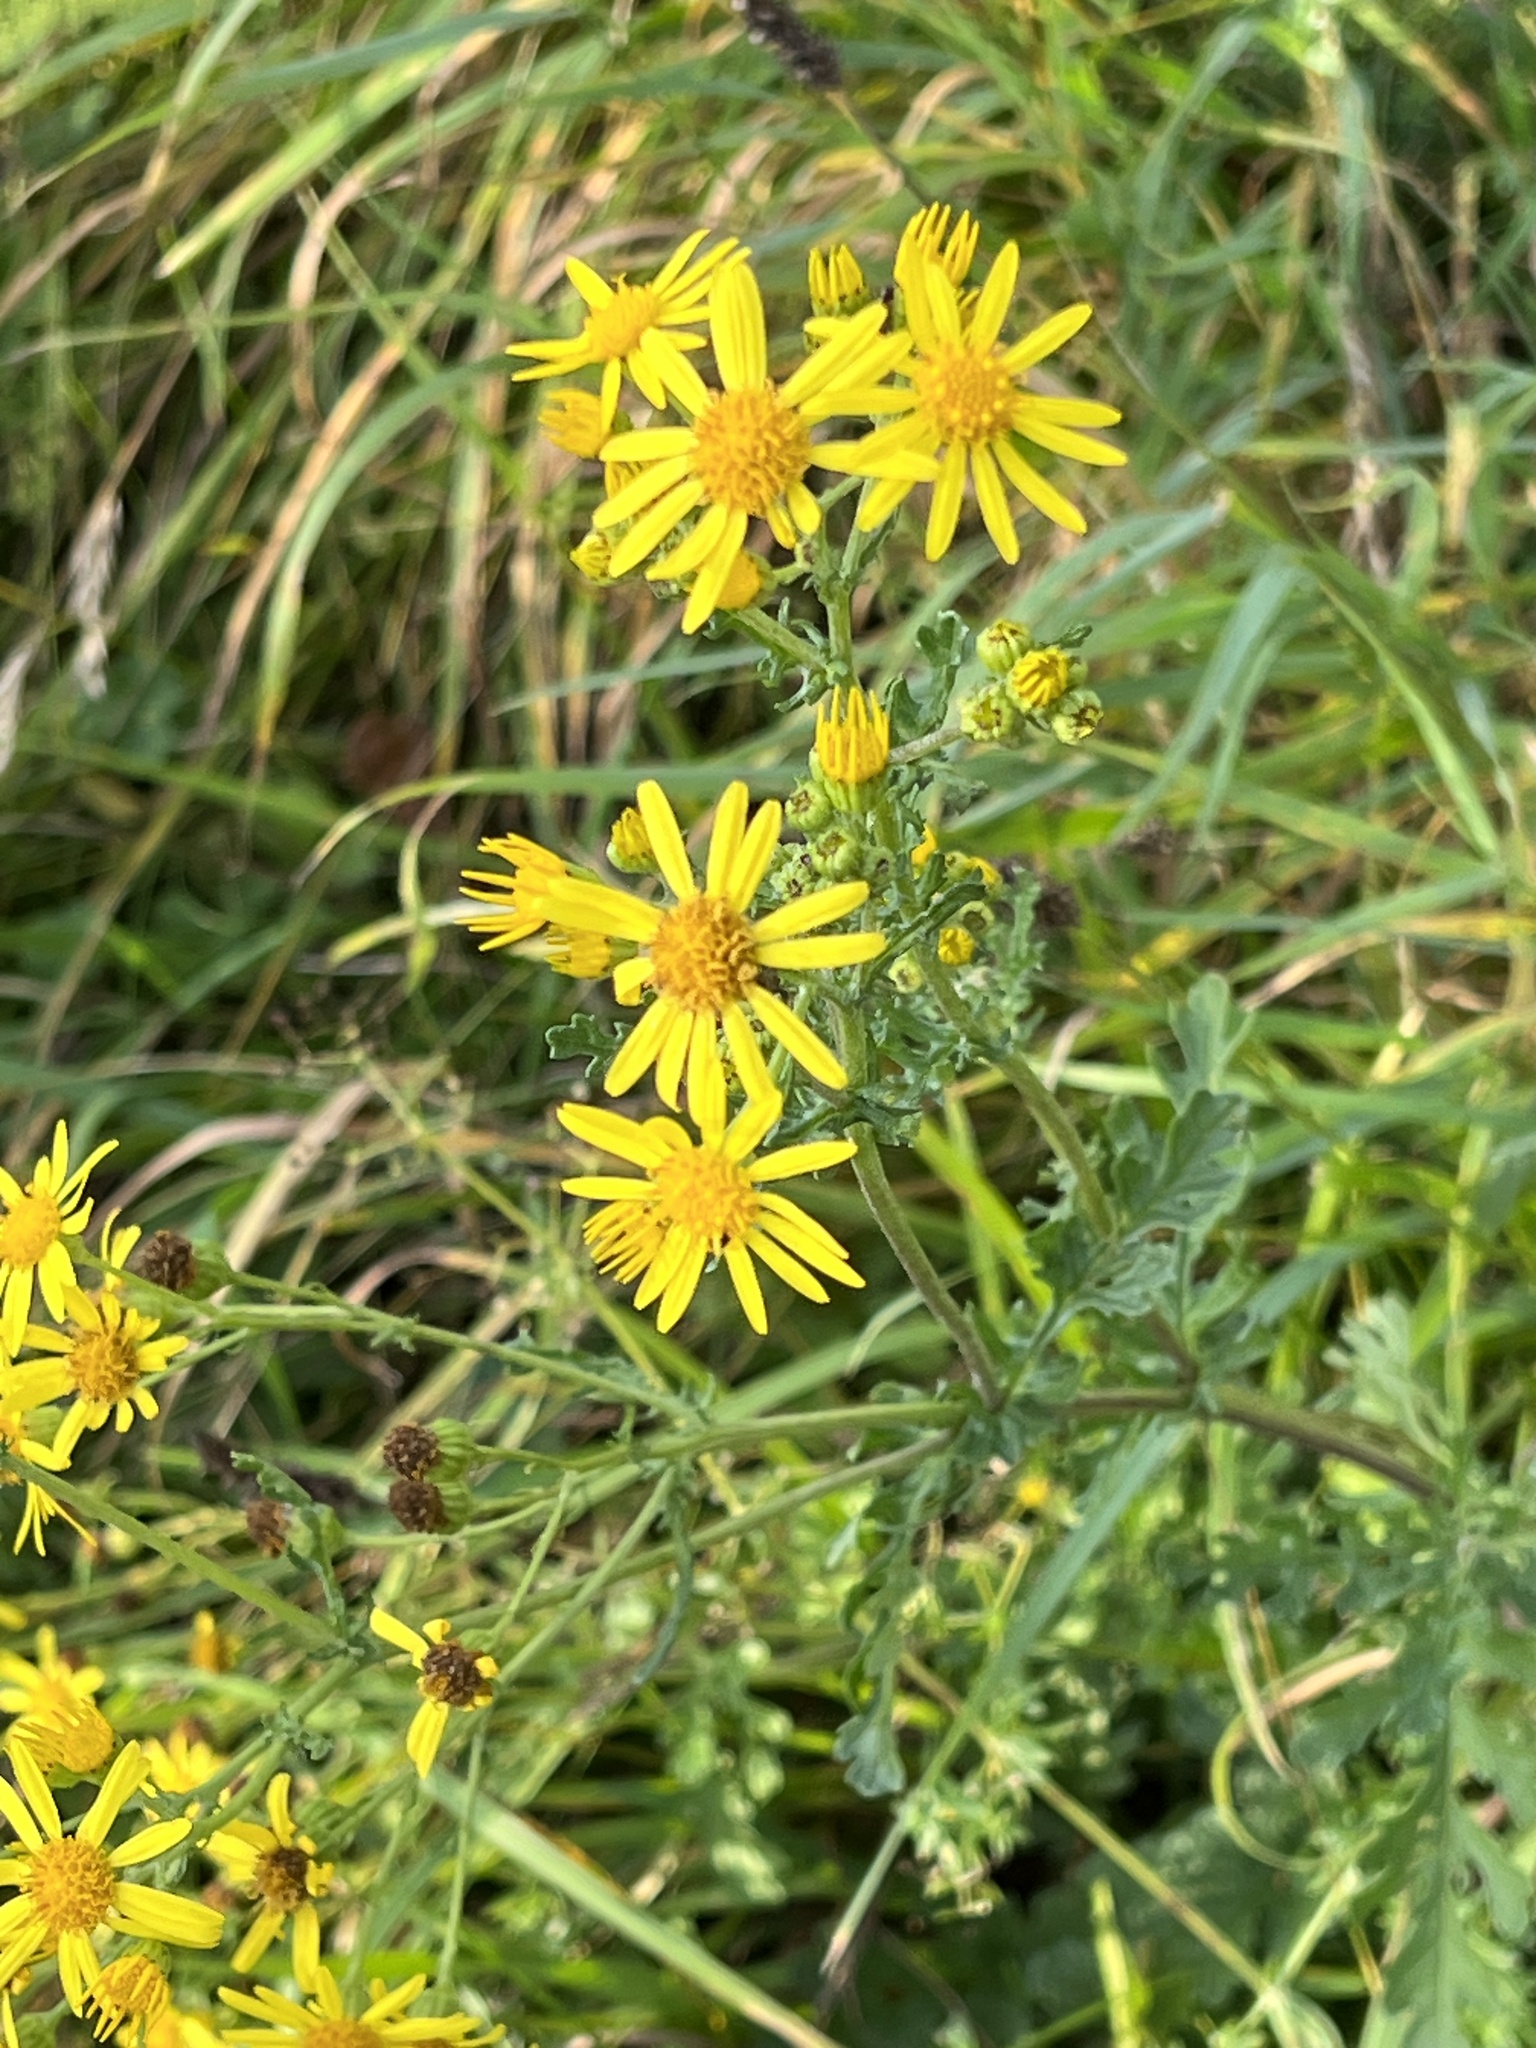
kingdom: Plantae
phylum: Tracheophyta
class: Magnoliopsida
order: Asterales
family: Asteraceae
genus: Jacobaea
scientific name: Jacobaea vulgaris
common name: Stinking willie
